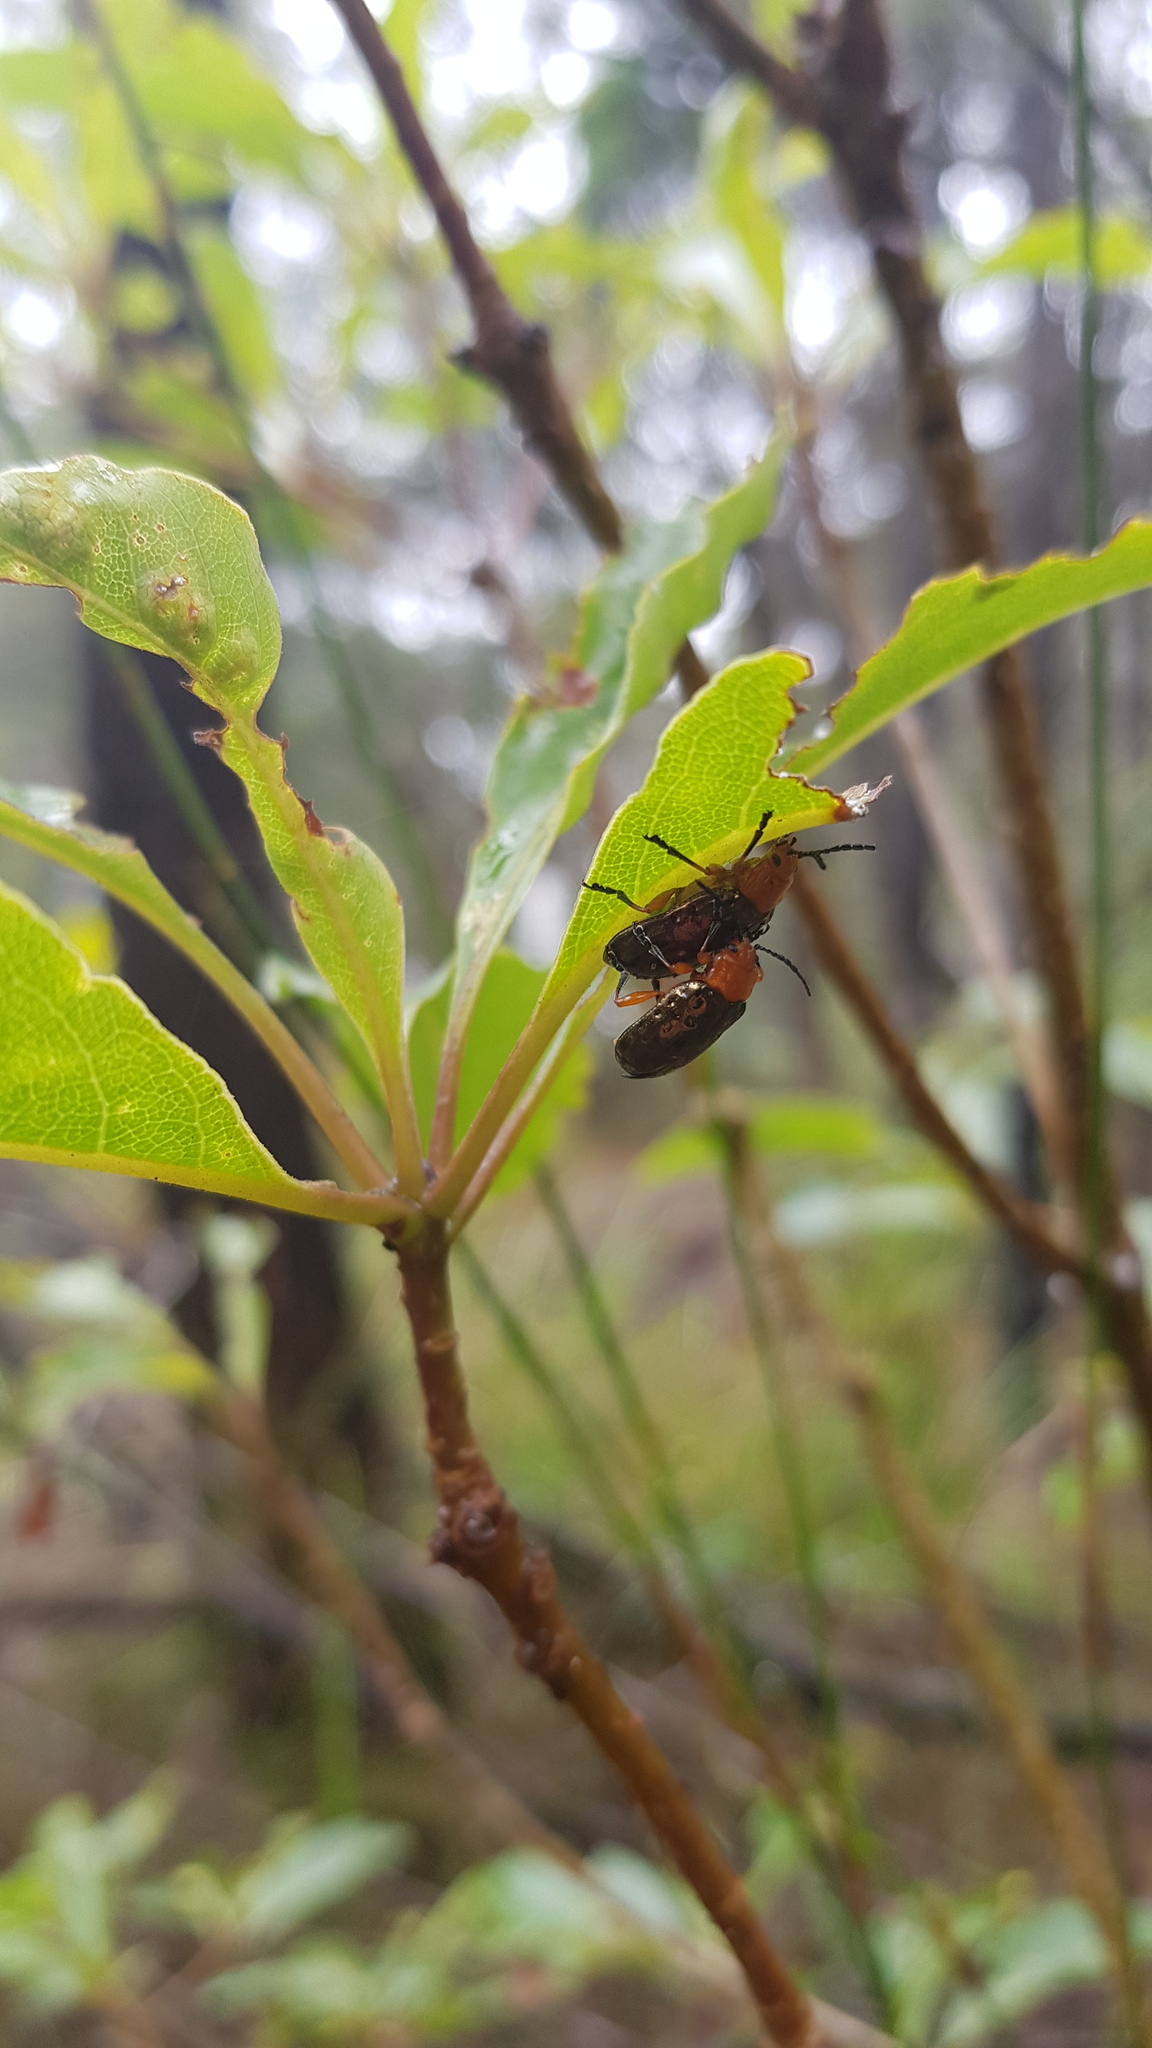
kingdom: Animalia
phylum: Arthropoda
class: Insecta
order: Coleoptera
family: Chrysomelidae
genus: Lamprolina
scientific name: Lamprolina
